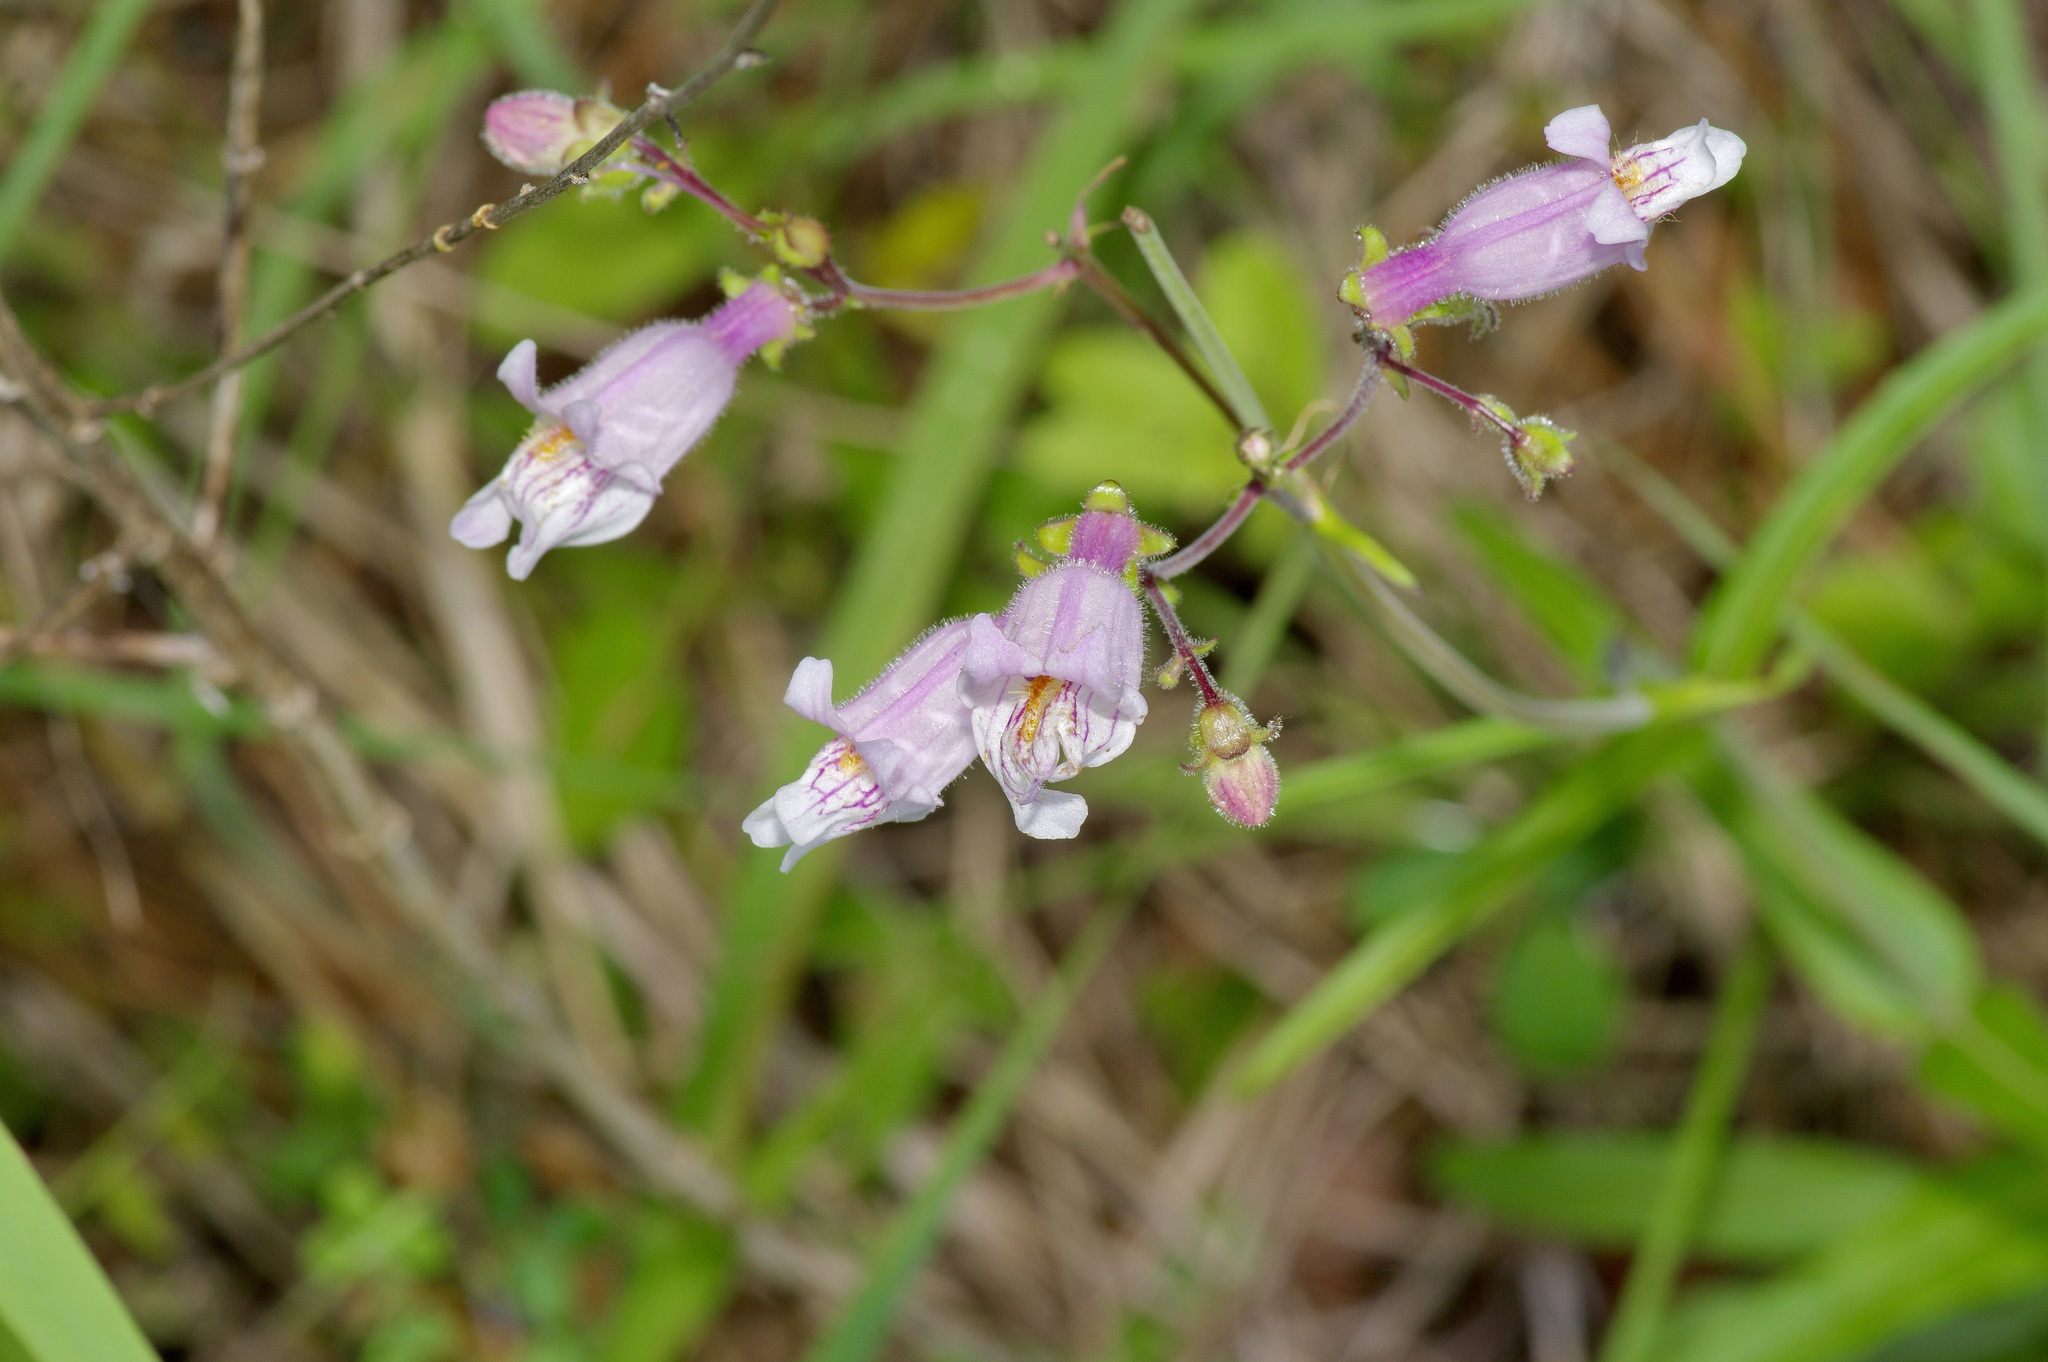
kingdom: Plantae
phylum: Tracheophyta
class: Magnoliopsida
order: Lamiales
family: Plantaginaceae
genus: Penstemon
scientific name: Penstemon laxiflorus
